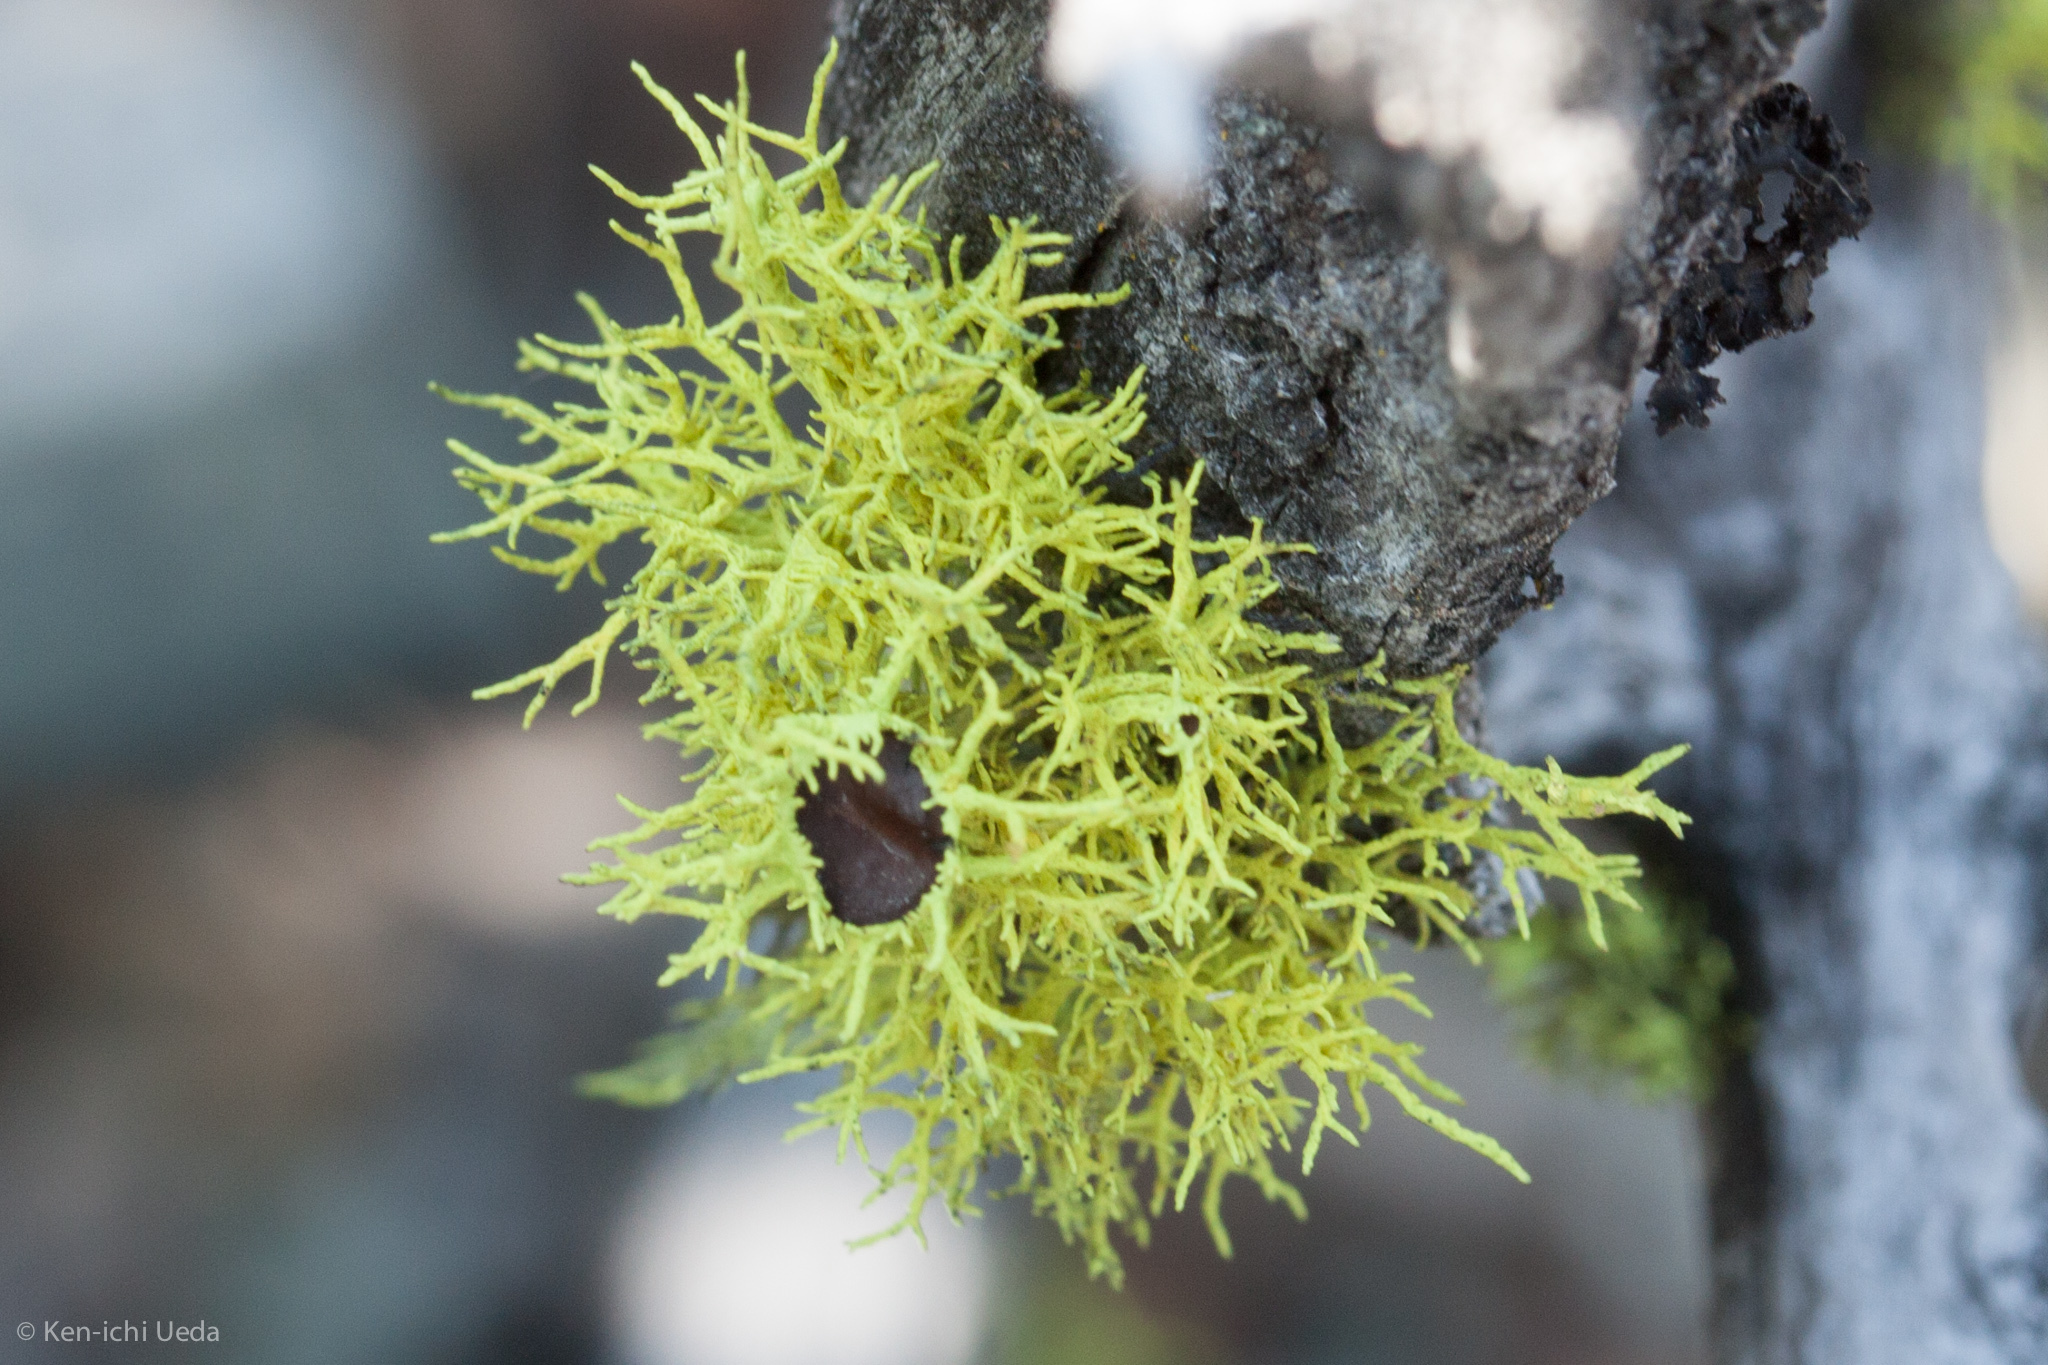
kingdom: Fungi
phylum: Ascomycota
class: Lecanoromycetes
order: Lecanorales
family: Parmeliaceae
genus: Letharia
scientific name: Letharia columbiana
